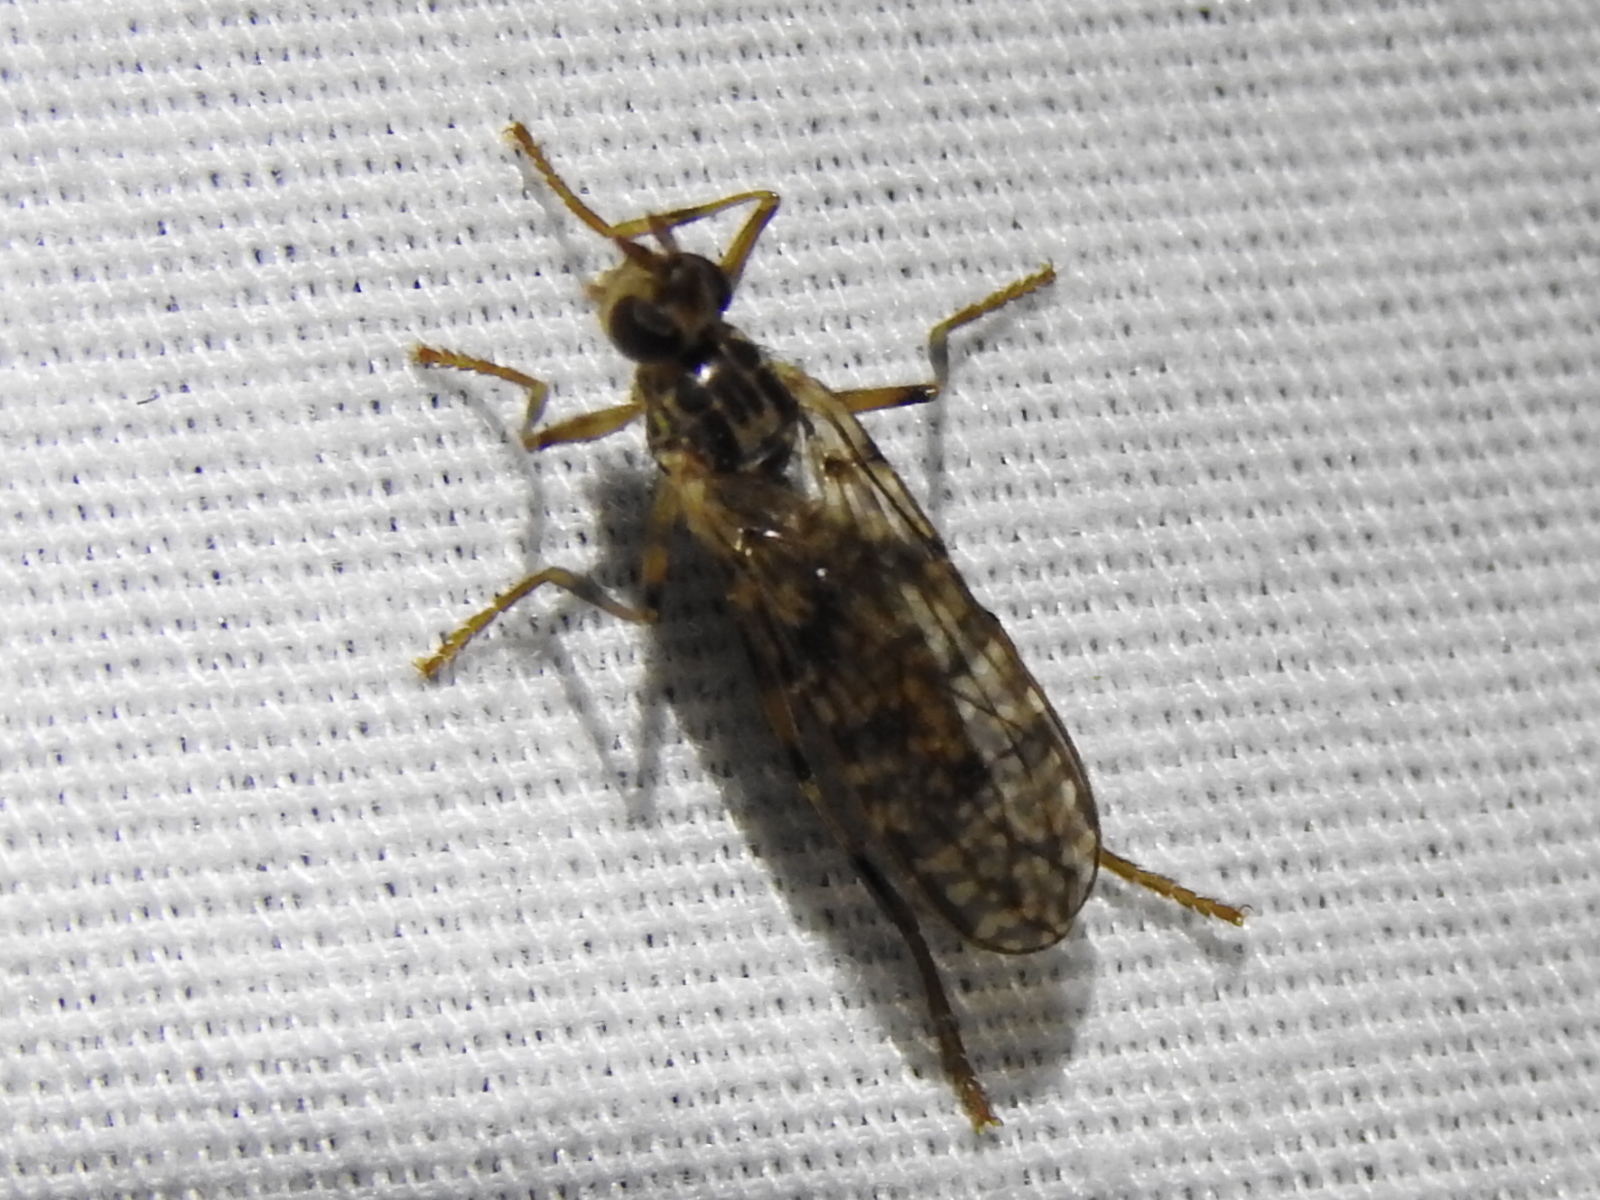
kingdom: Animalia
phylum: Arthropoda
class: Insecta
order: Diptera
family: Pyrgotidae
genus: Boreothrinax
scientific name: Boreothrinax
